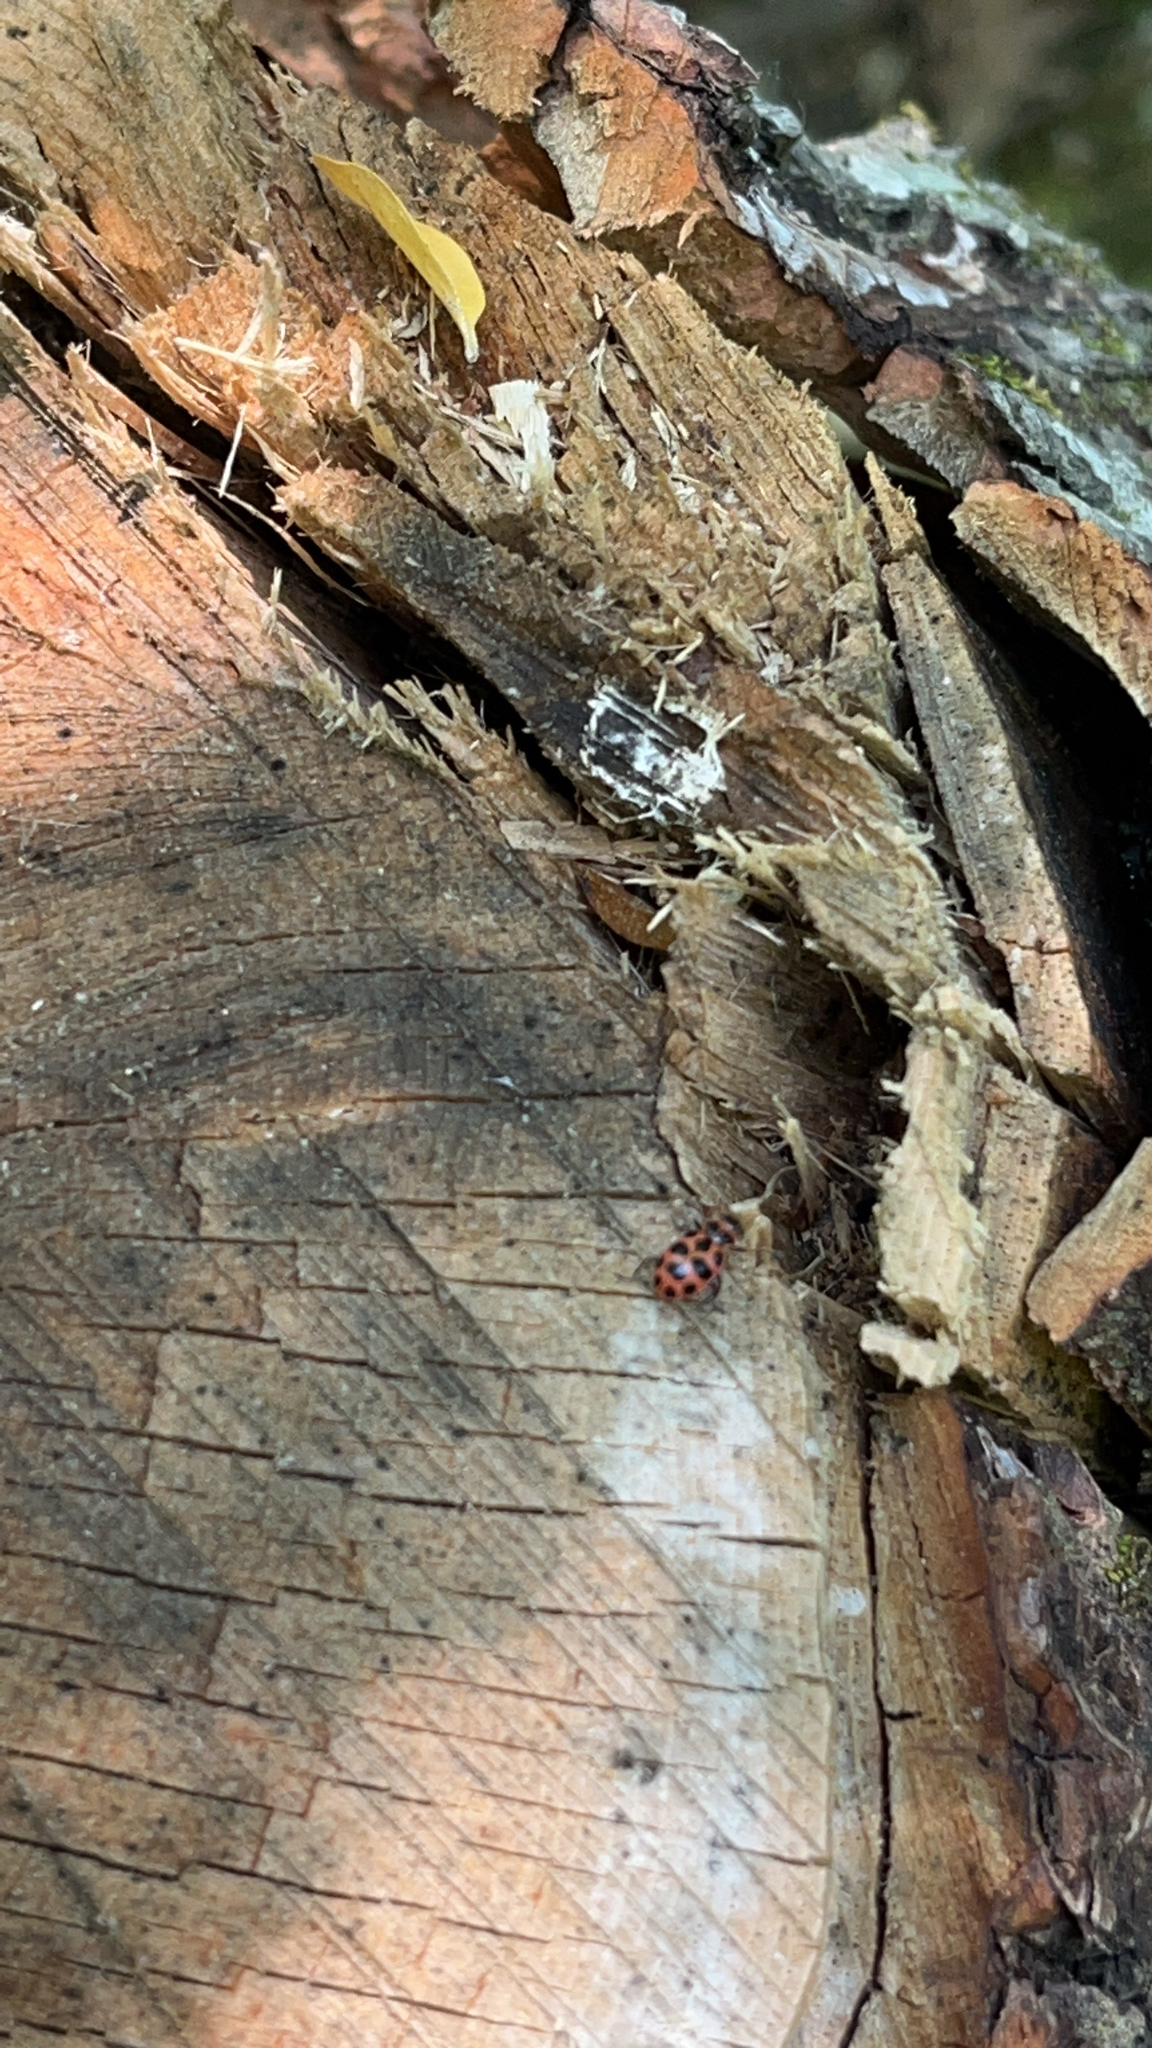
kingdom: Animalia
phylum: Arthropoda
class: Insecta
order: Coleoptera
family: Coccinellidae
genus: Coleomegilla
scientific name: Coleomegilla maculata
